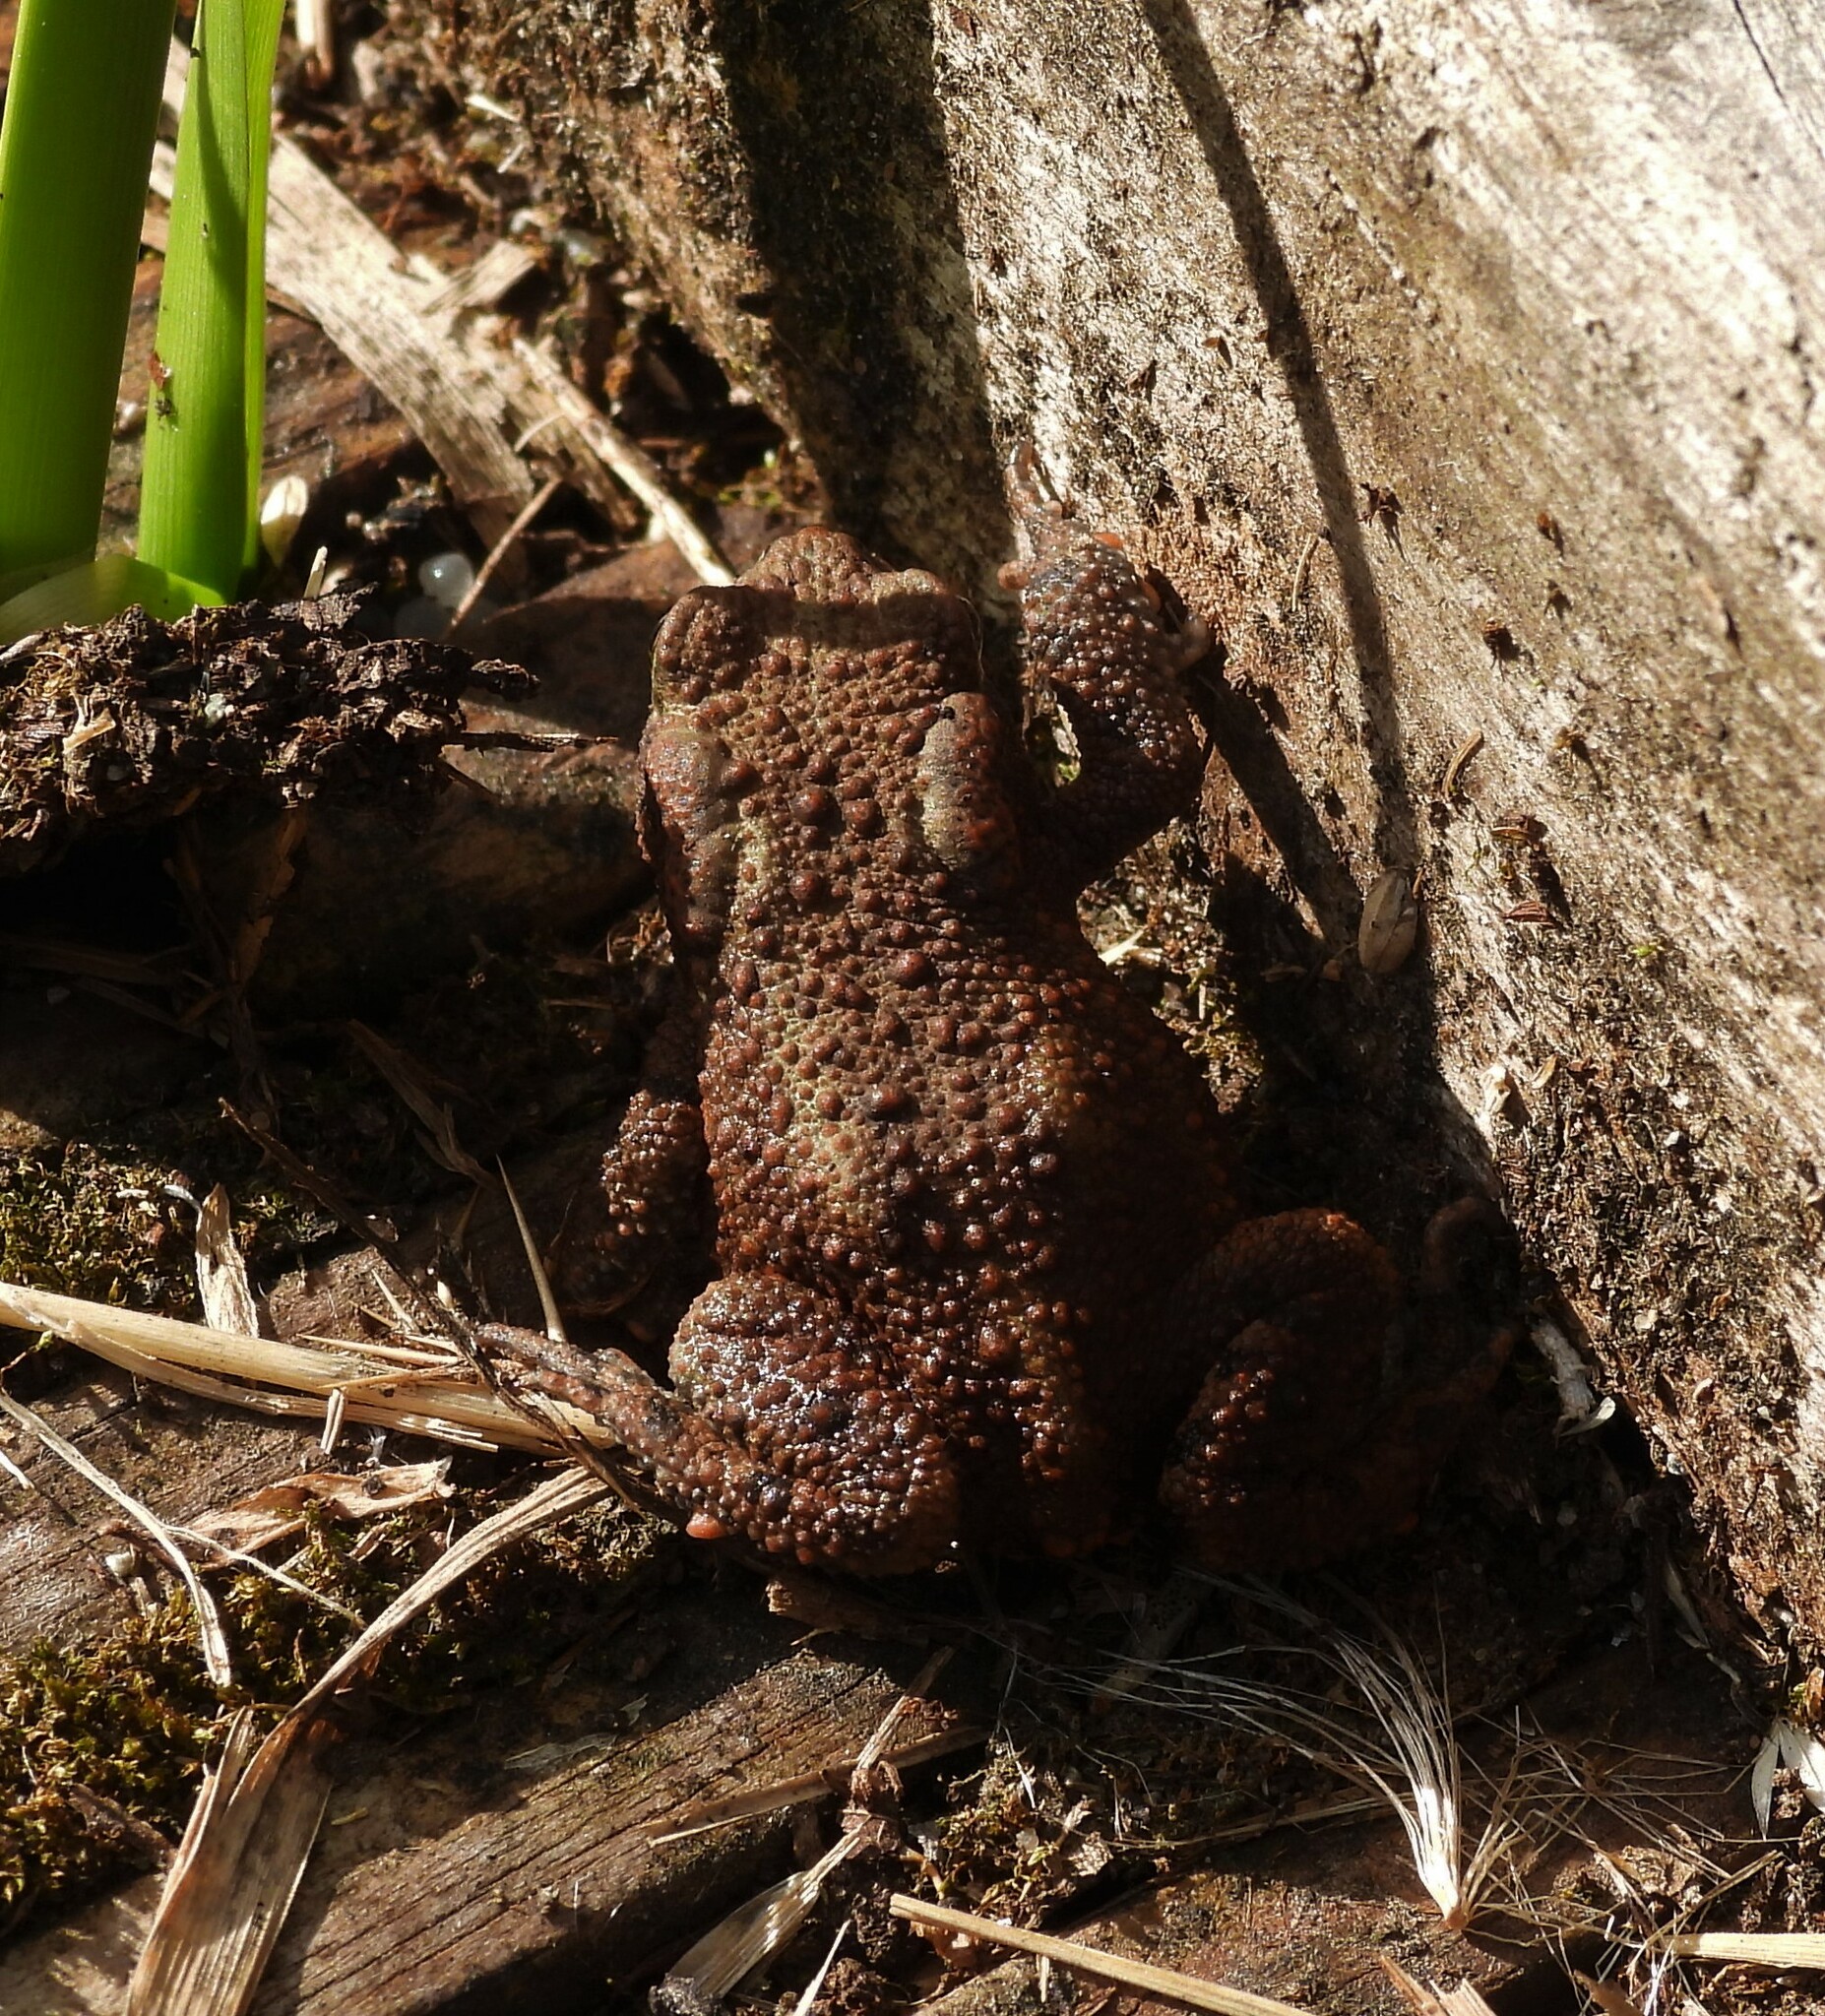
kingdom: Animalia
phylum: Chordata
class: Amphibia
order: Anura
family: Bufonidae
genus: Bufo
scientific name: Bufo bufo
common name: Common toad
